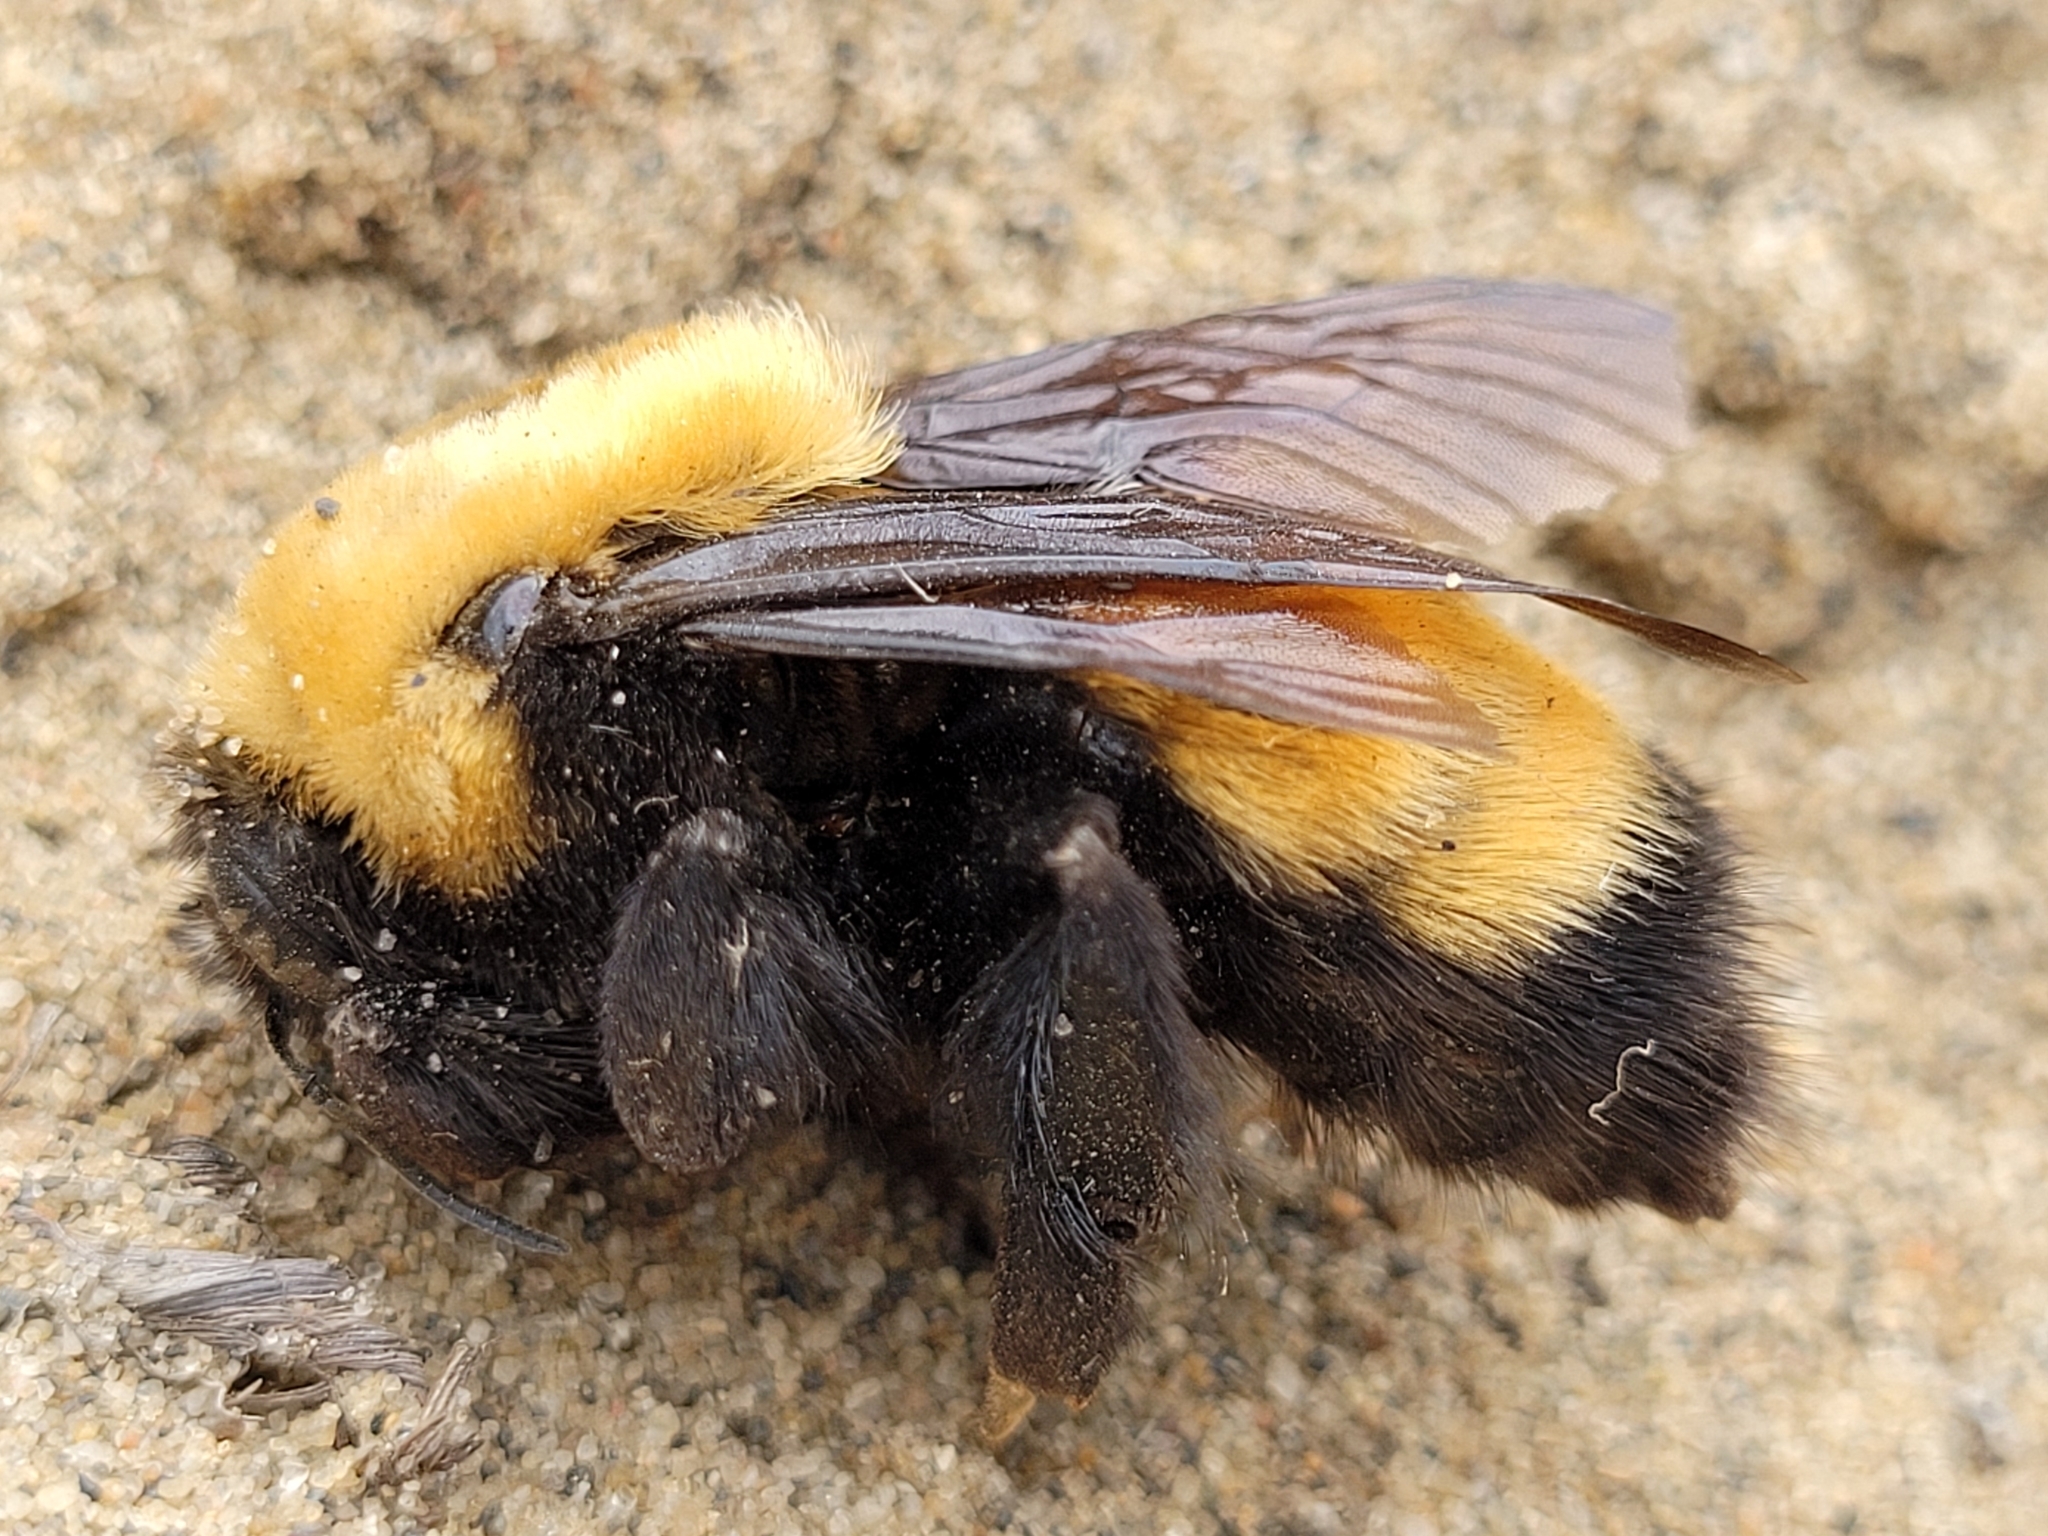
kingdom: Animalia
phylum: Arthropoda
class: Insecta
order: Hymenoptera
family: Apidae
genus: Bombus
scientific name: Bombus nevadensis
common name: Nevada bumble bee
